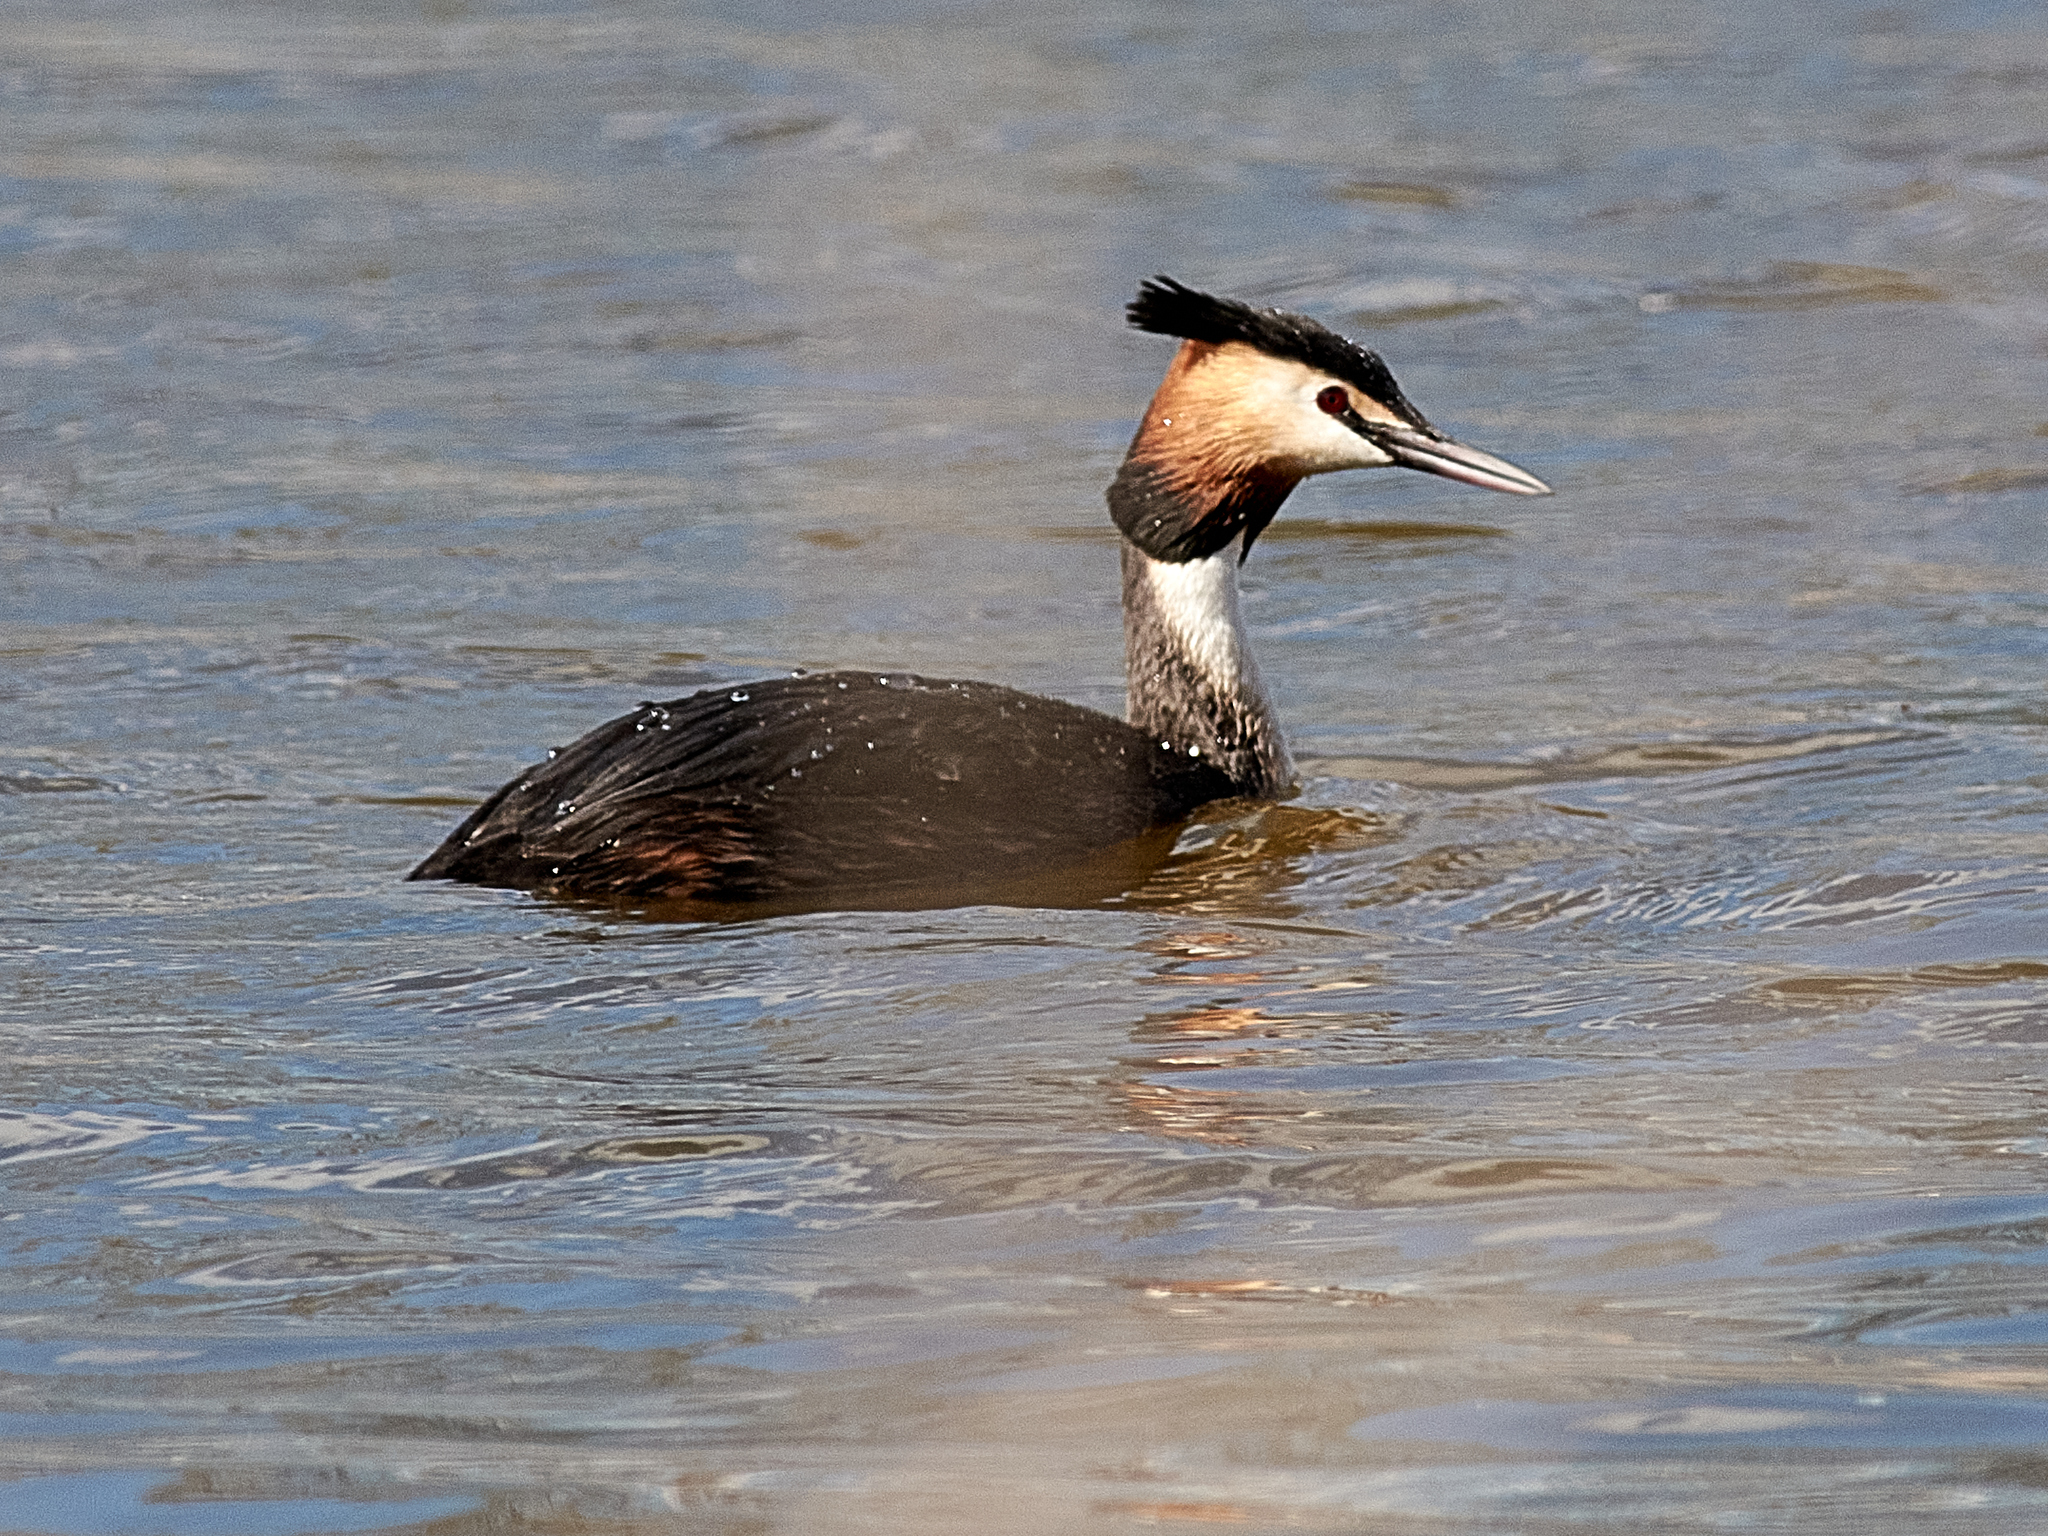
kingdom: Animalia
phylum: Chordata
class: Aves
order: Podicipediformes
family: Podicipedidae
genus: Podiceps
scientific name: Podiceps cristatus
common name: Great crested grebe
